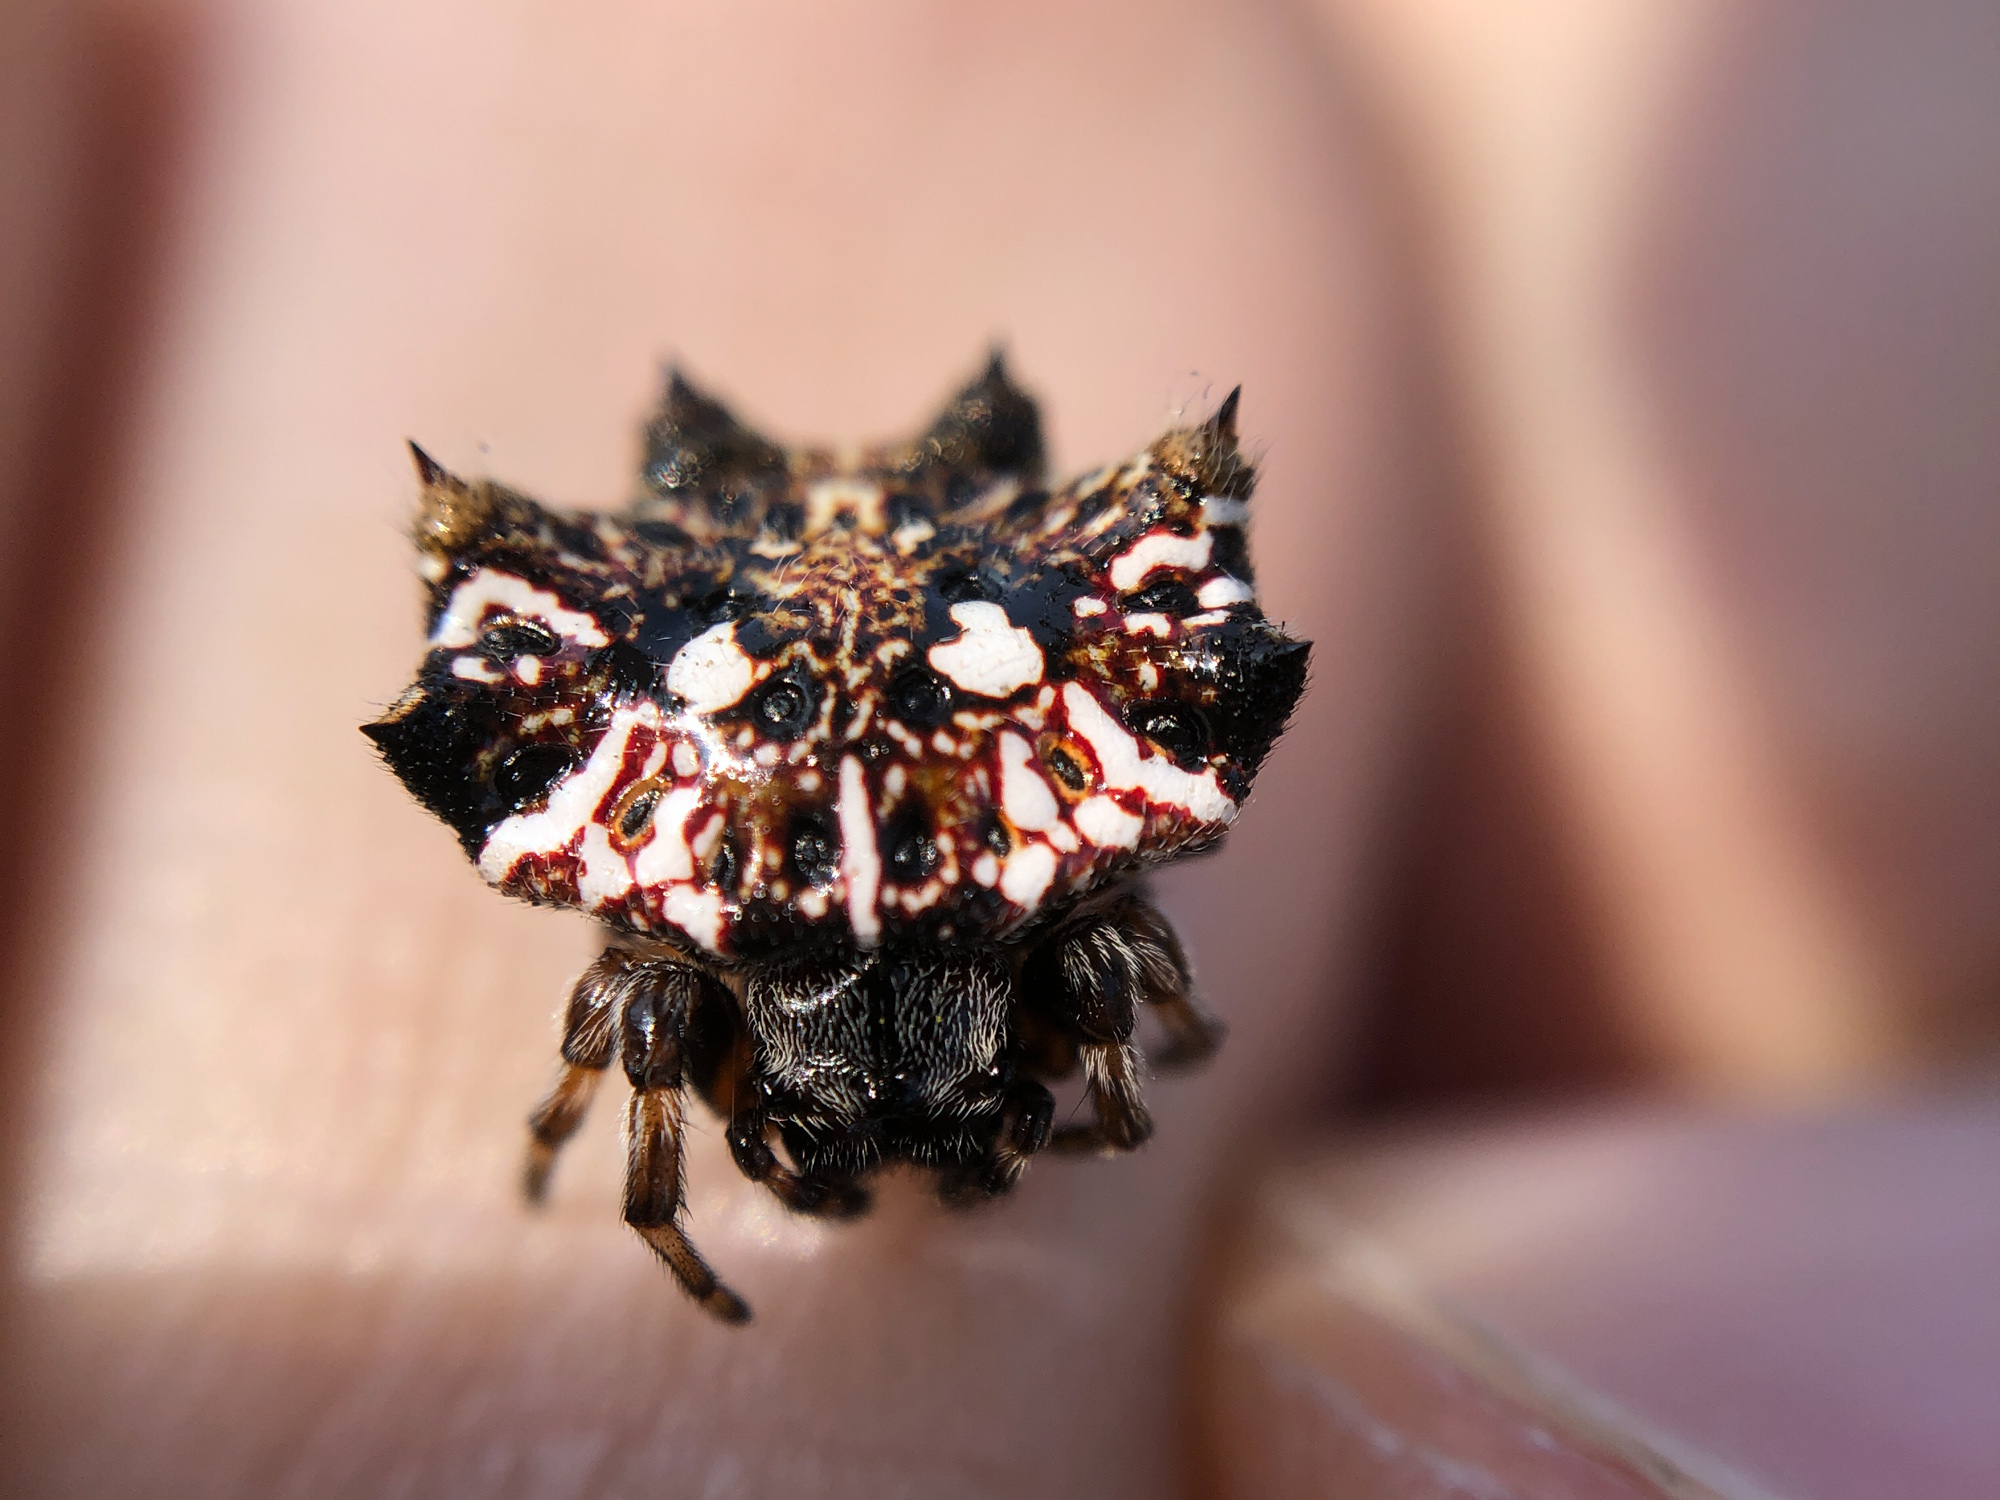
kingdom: Animalia
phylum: Arthropoda
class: Arachnida
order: Araneae
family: Araneidae
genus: Thelacantha
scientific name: Thelacantha brevispina
